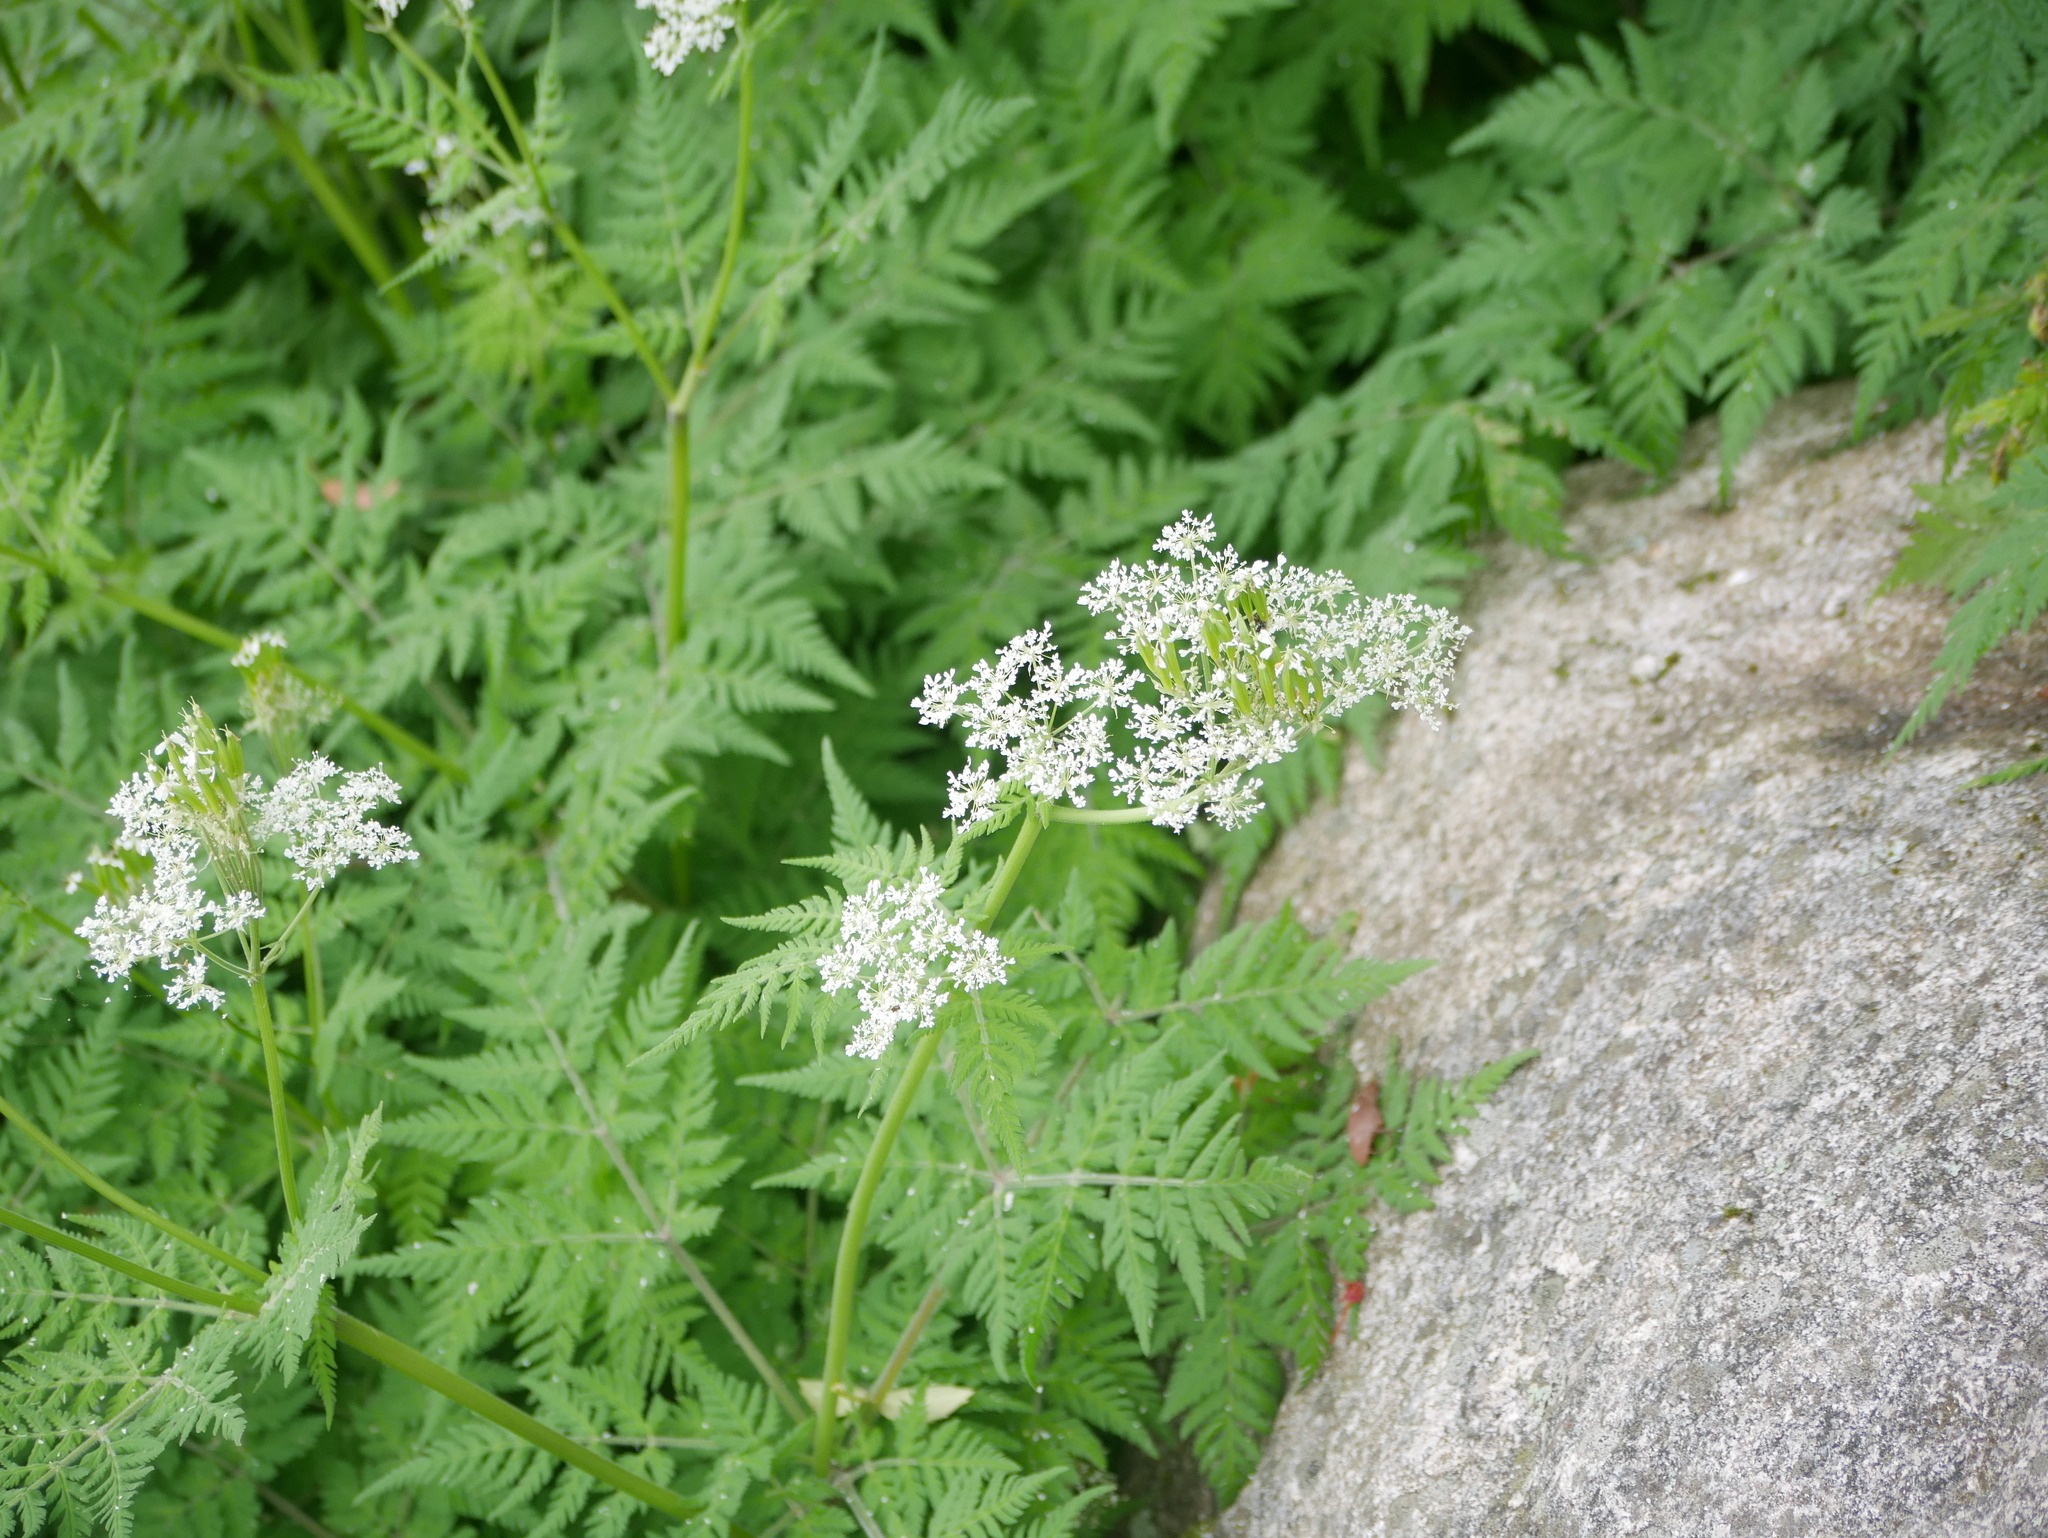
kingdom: Plantae
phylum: Tracheophyta
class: Magnoliopsida
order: Apiales
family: Apiaceae
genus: Anthriscus
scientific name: Anthriscus sylvestris
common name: Cow parsley
